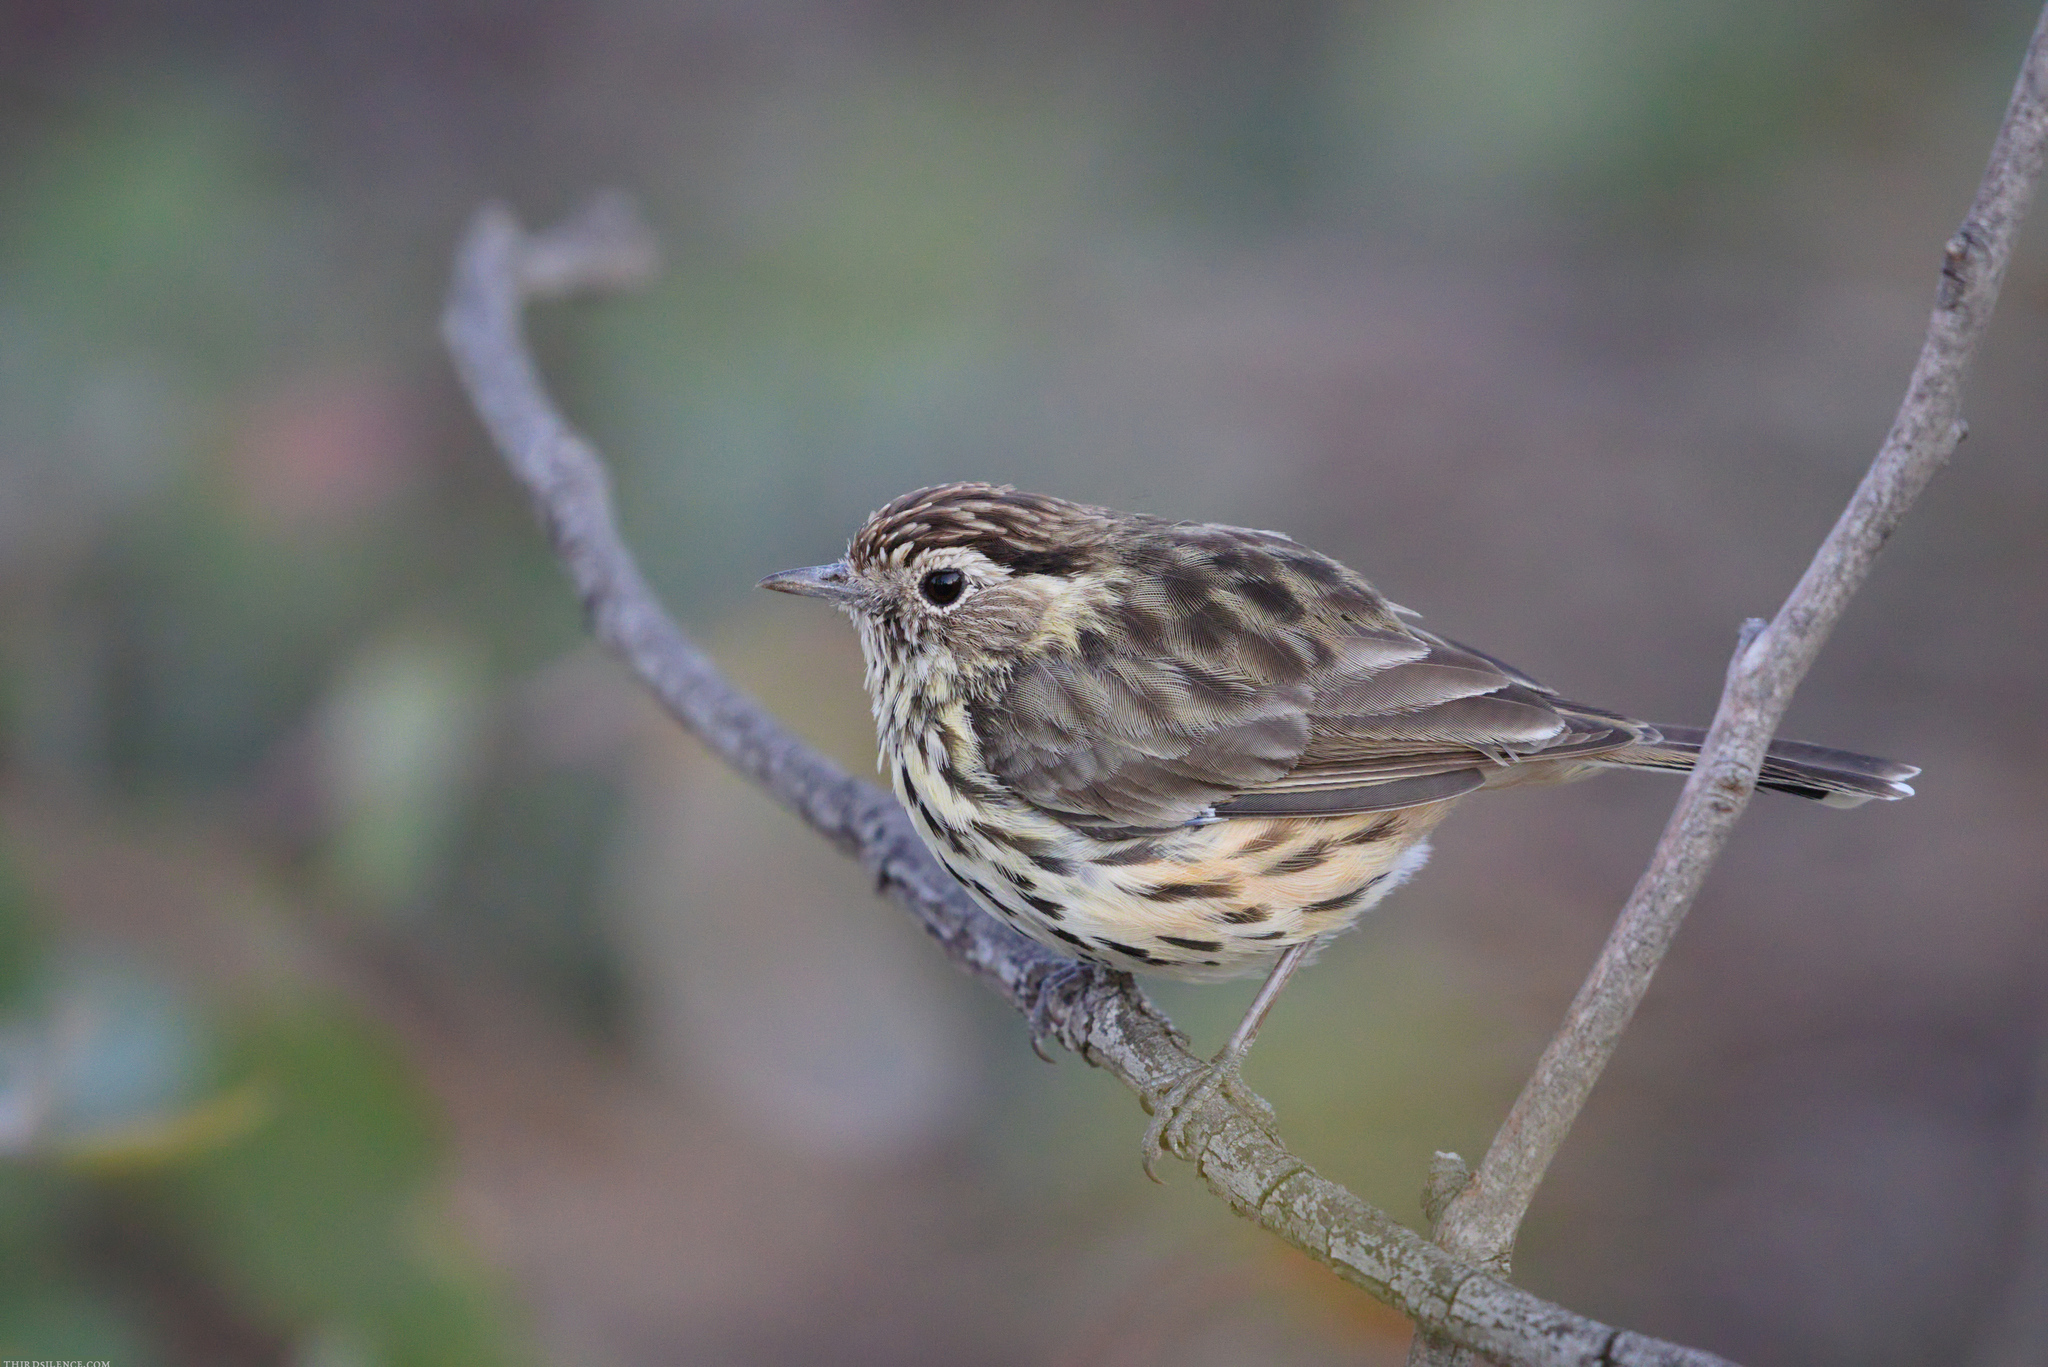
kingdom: Animalia
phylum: Chordata
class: Aves
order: Passeriformes
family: Acanthizidae
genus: Pyrrholaemus
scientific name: Pyrrholaemus sagittatus
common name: Speckled warbler
